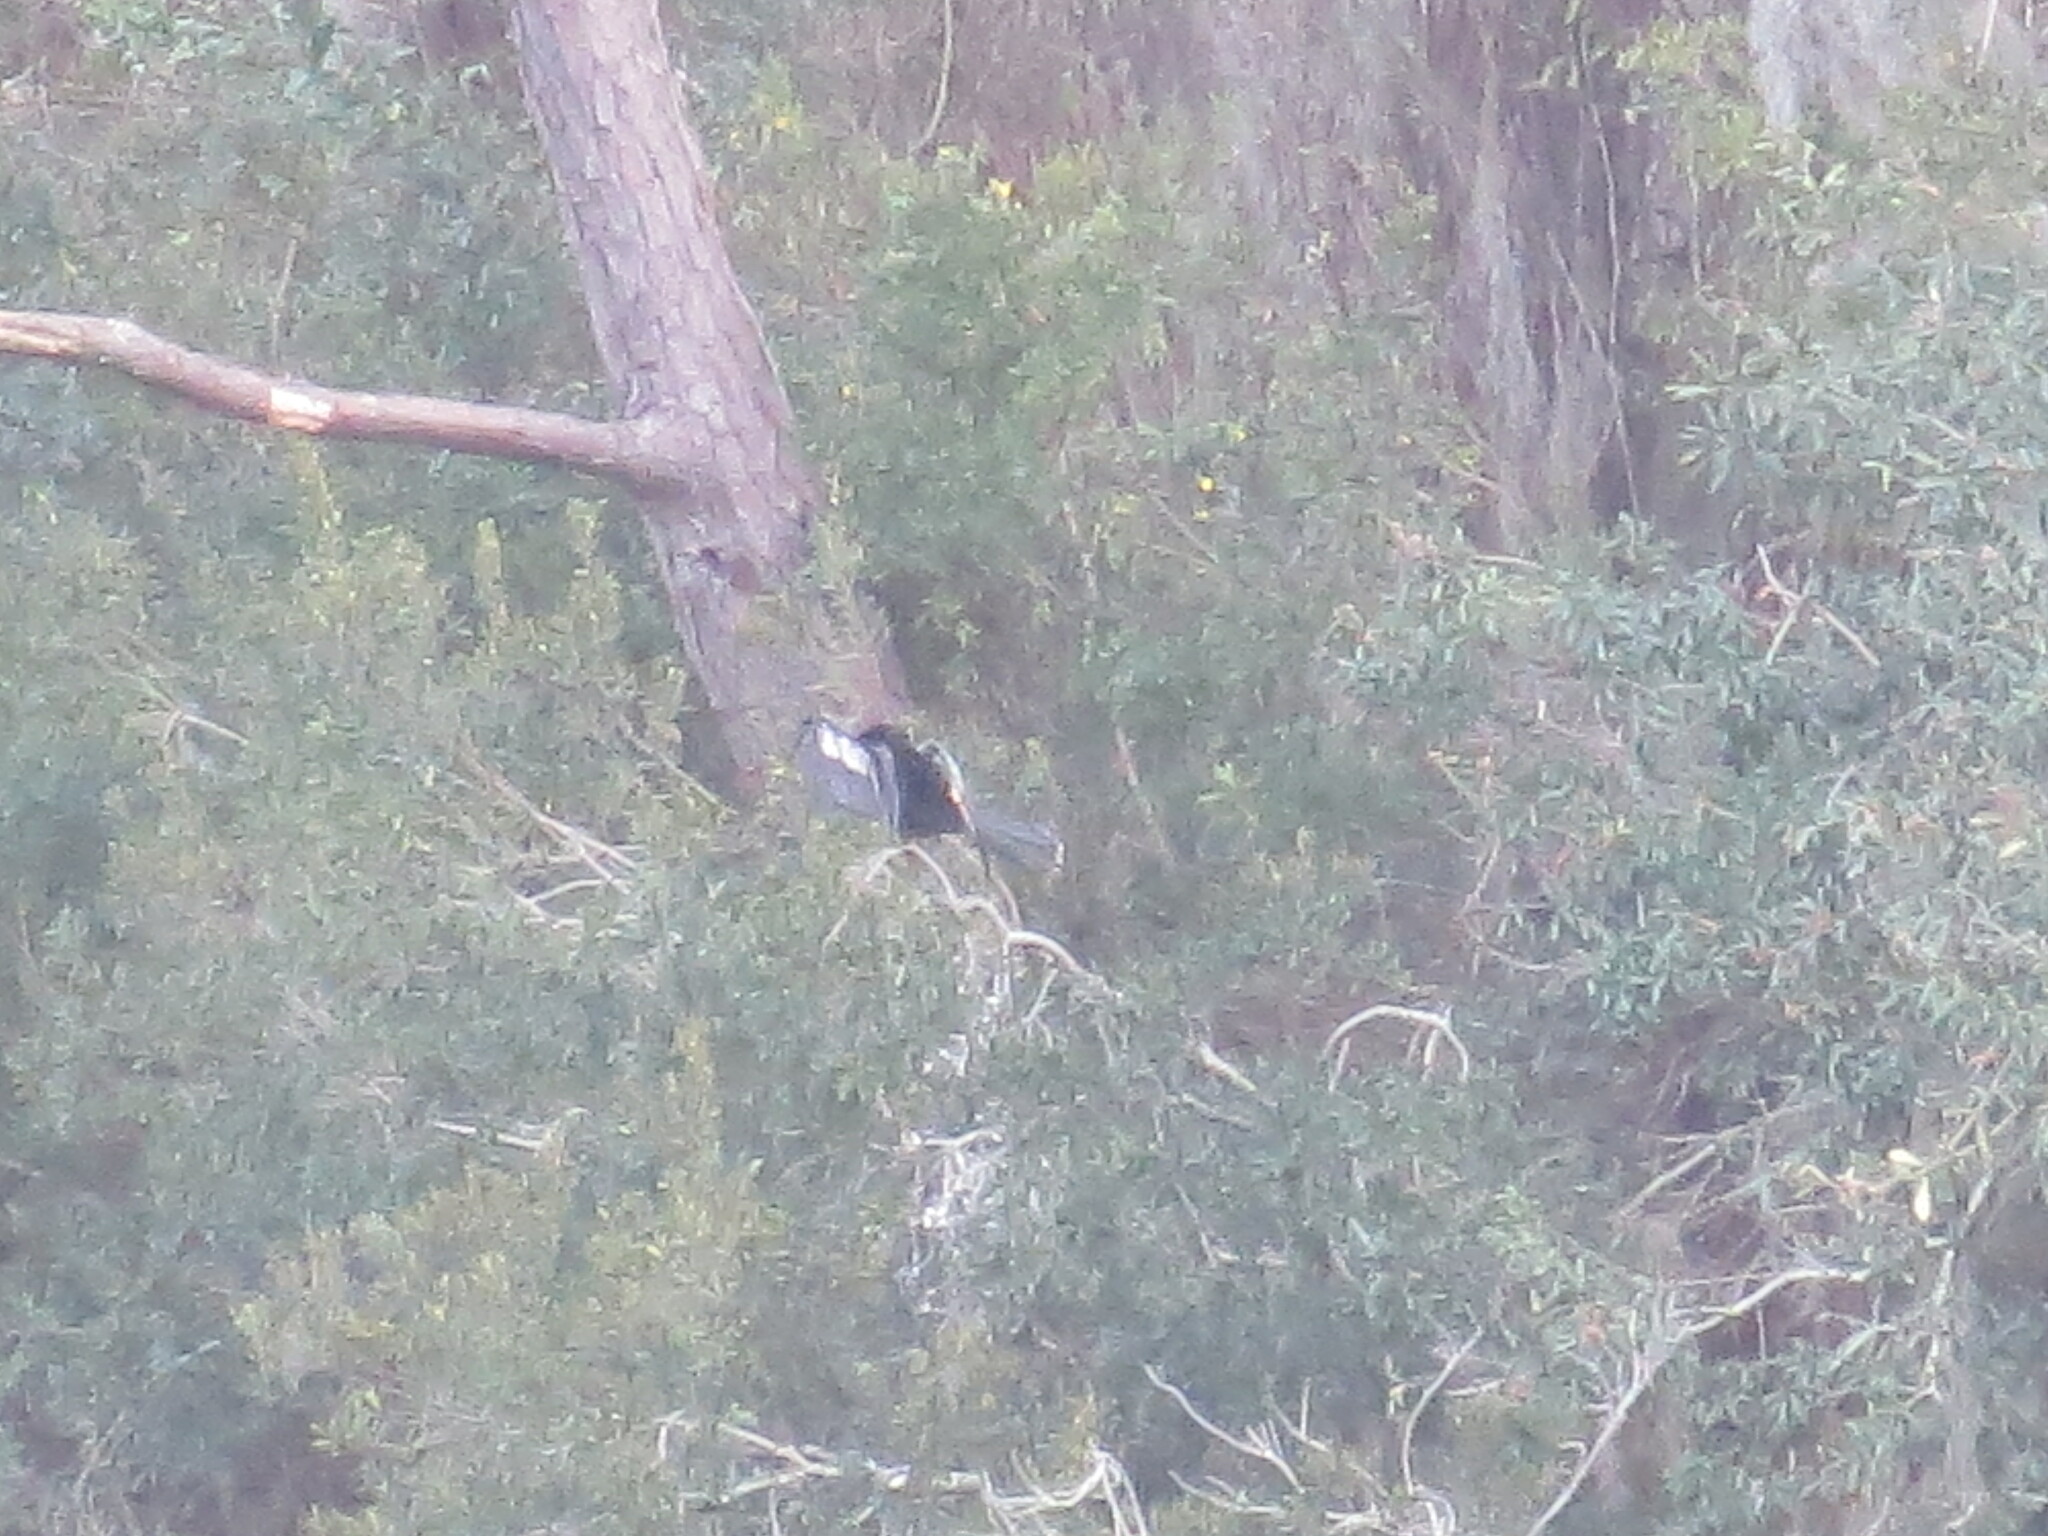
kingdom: Animalia
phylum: Chordata
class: Aves
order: Suliformes
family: Anhingidae
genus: Anhinga
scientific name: Anhinga anhinga
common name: Anhinga
